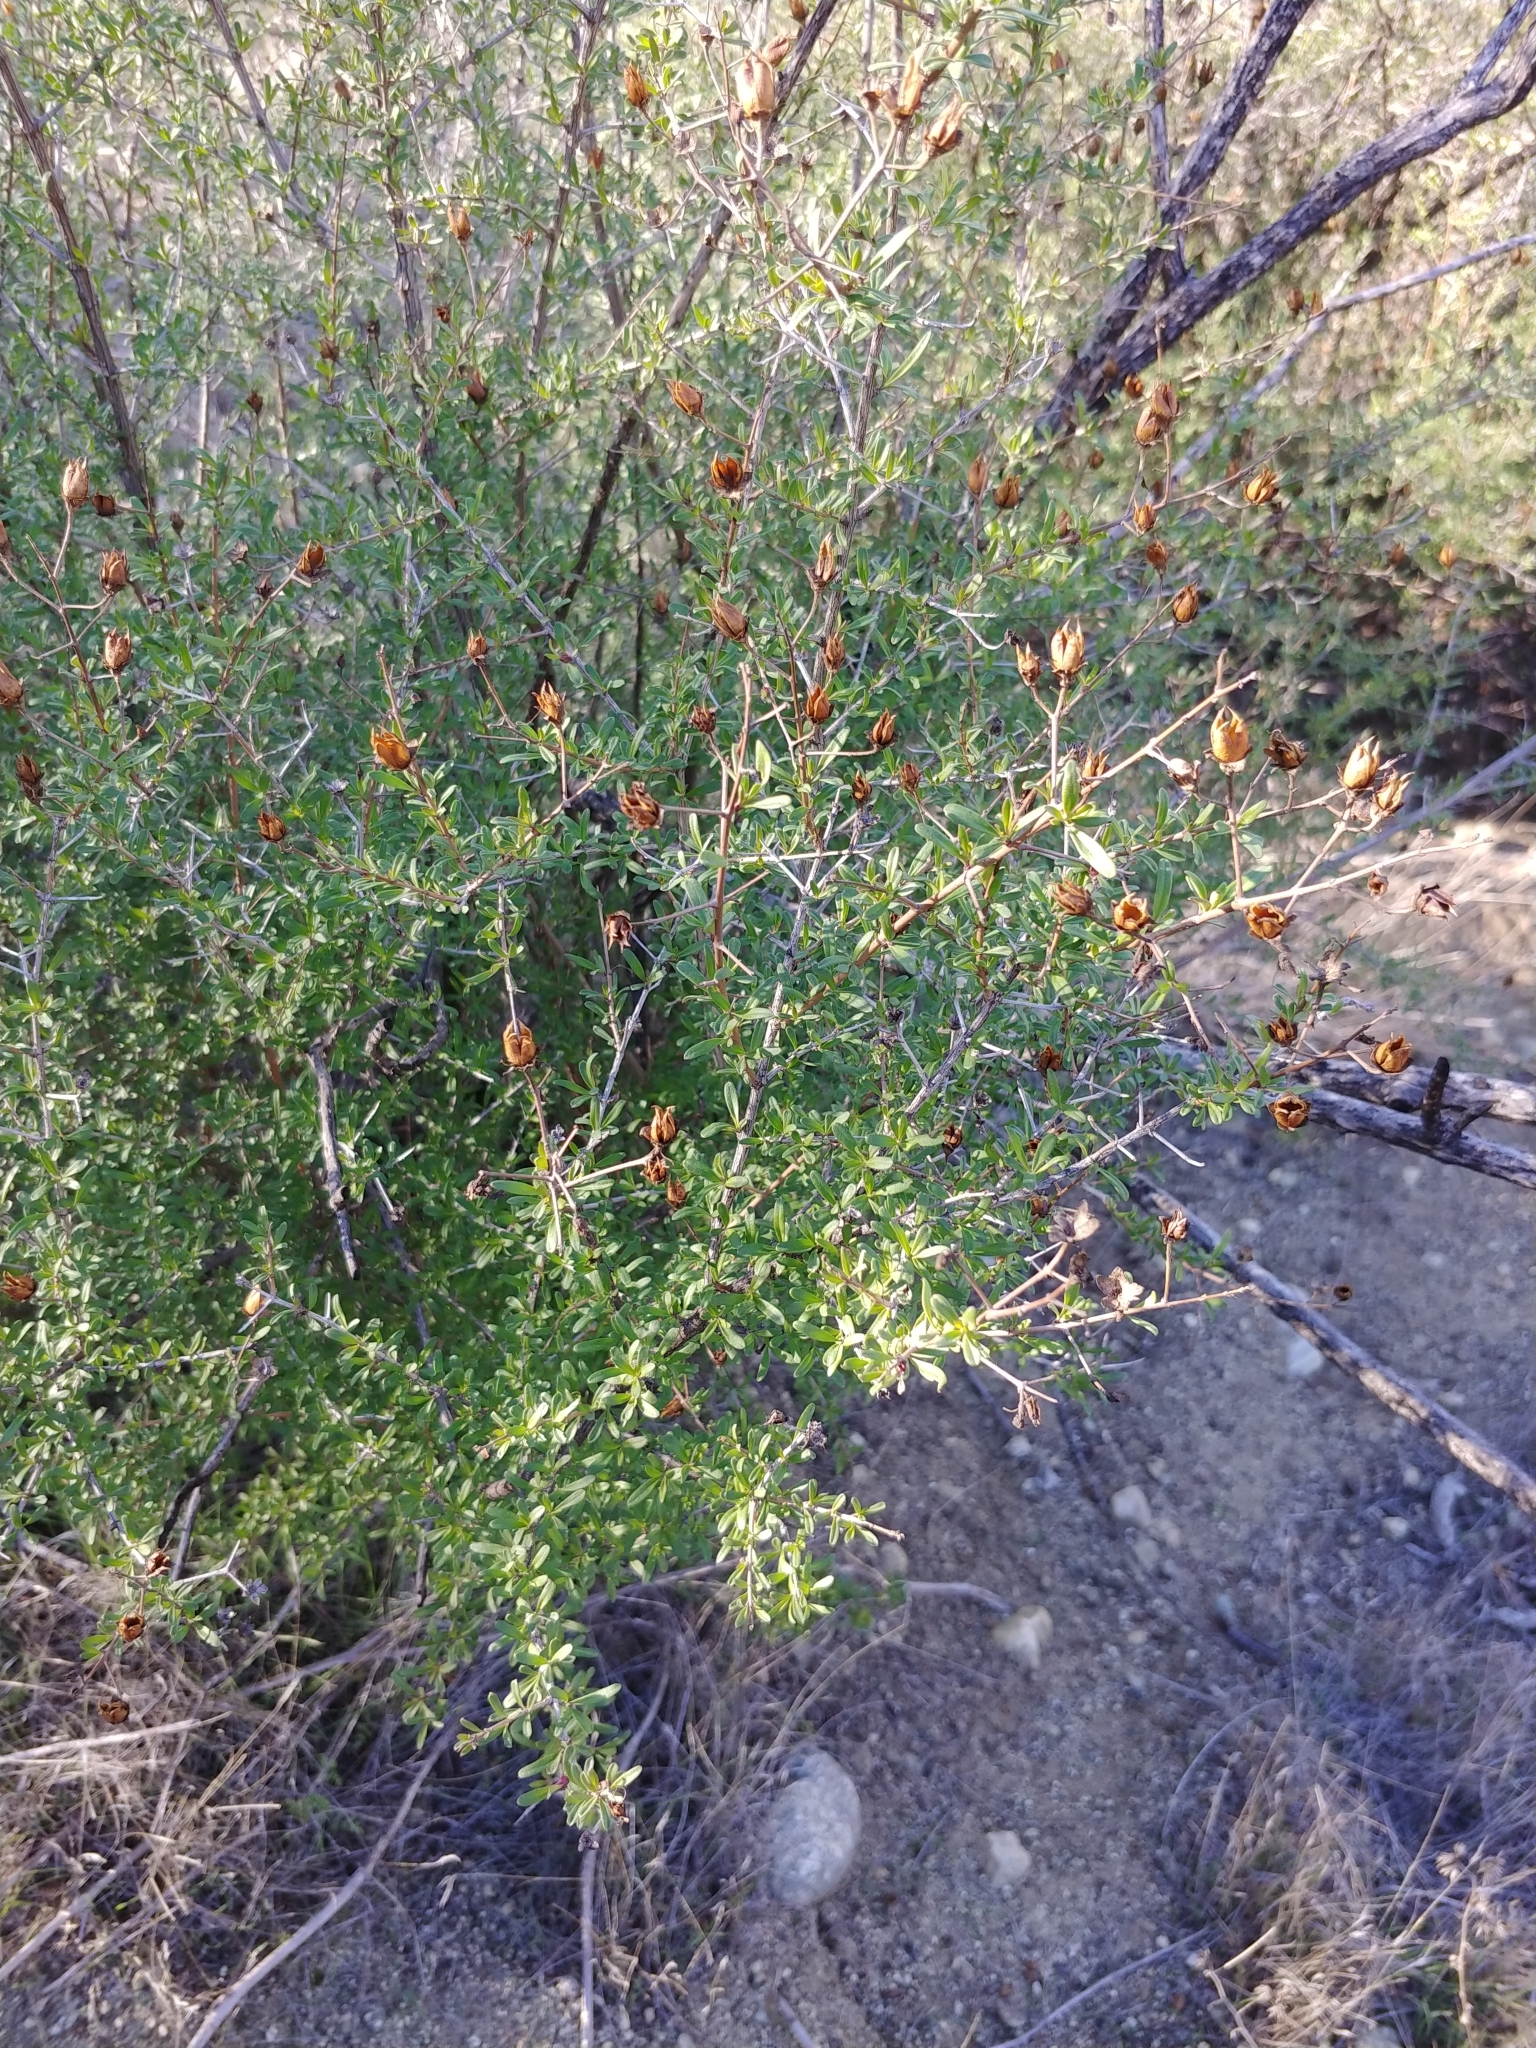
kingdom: Plantae
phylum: Tracheophyta
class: Magnoliopsida
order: Lamiales
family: Plantaginaceae
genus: Keckiella
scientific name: Keckiella antirrhinoides
